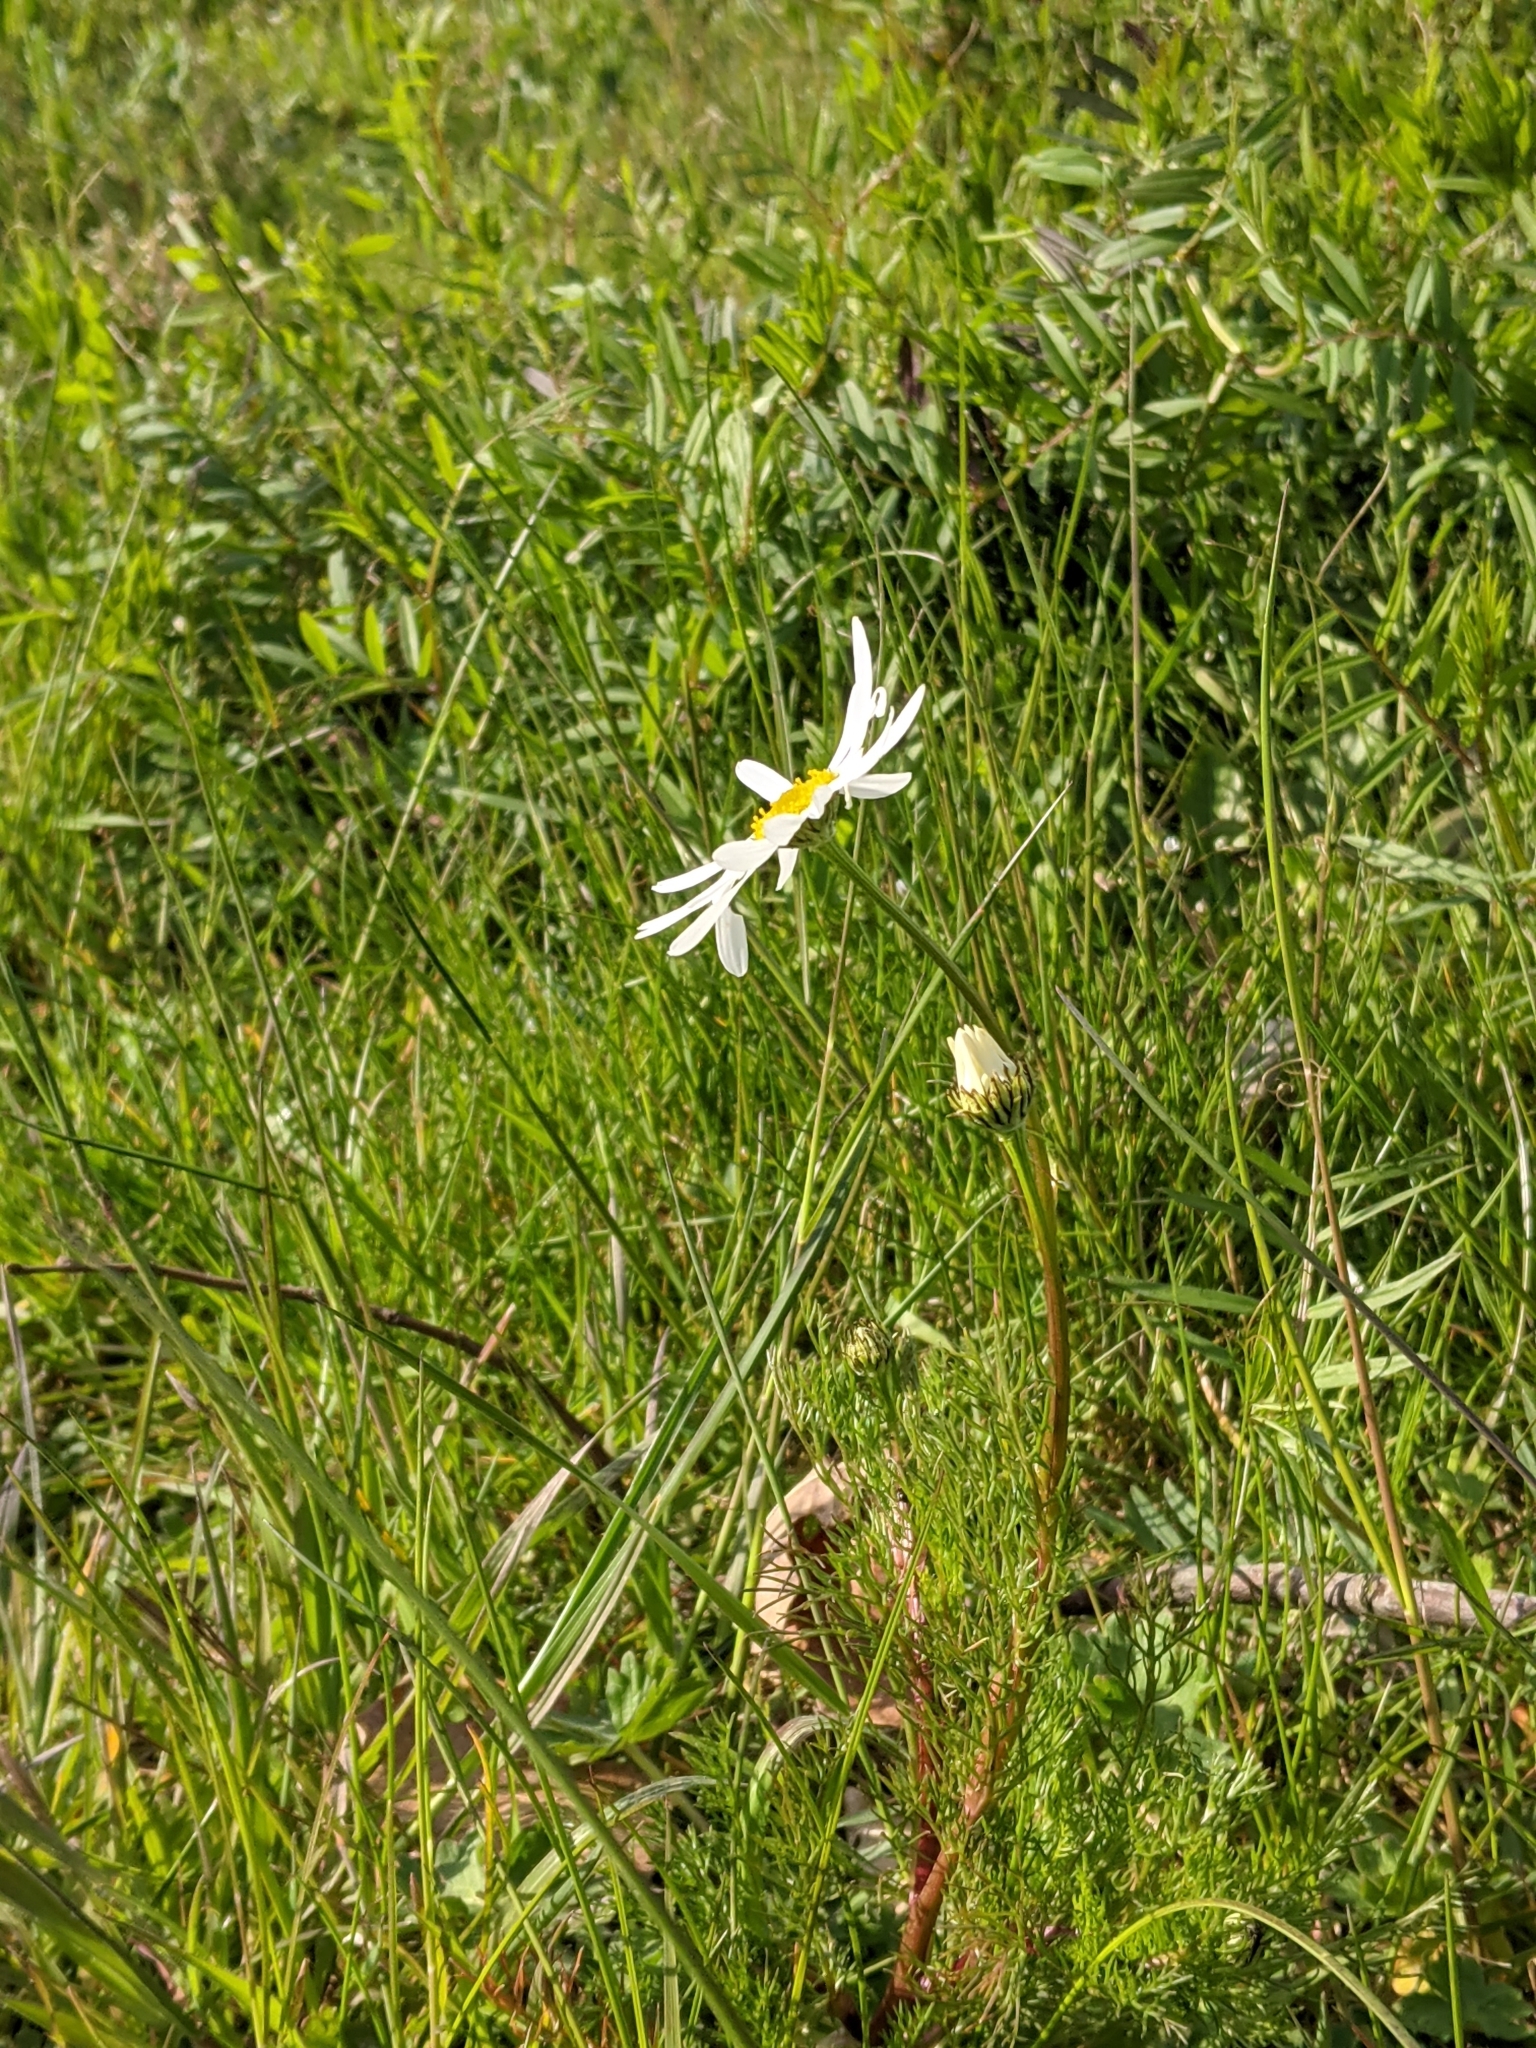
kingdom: Plantae
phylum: Tracheophyta
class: Magnoliopsida
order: Asterales
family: Asteraceae
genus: Tripleurospermum
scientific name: Tripleurospermum inodorum
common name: Scentless mayweed
